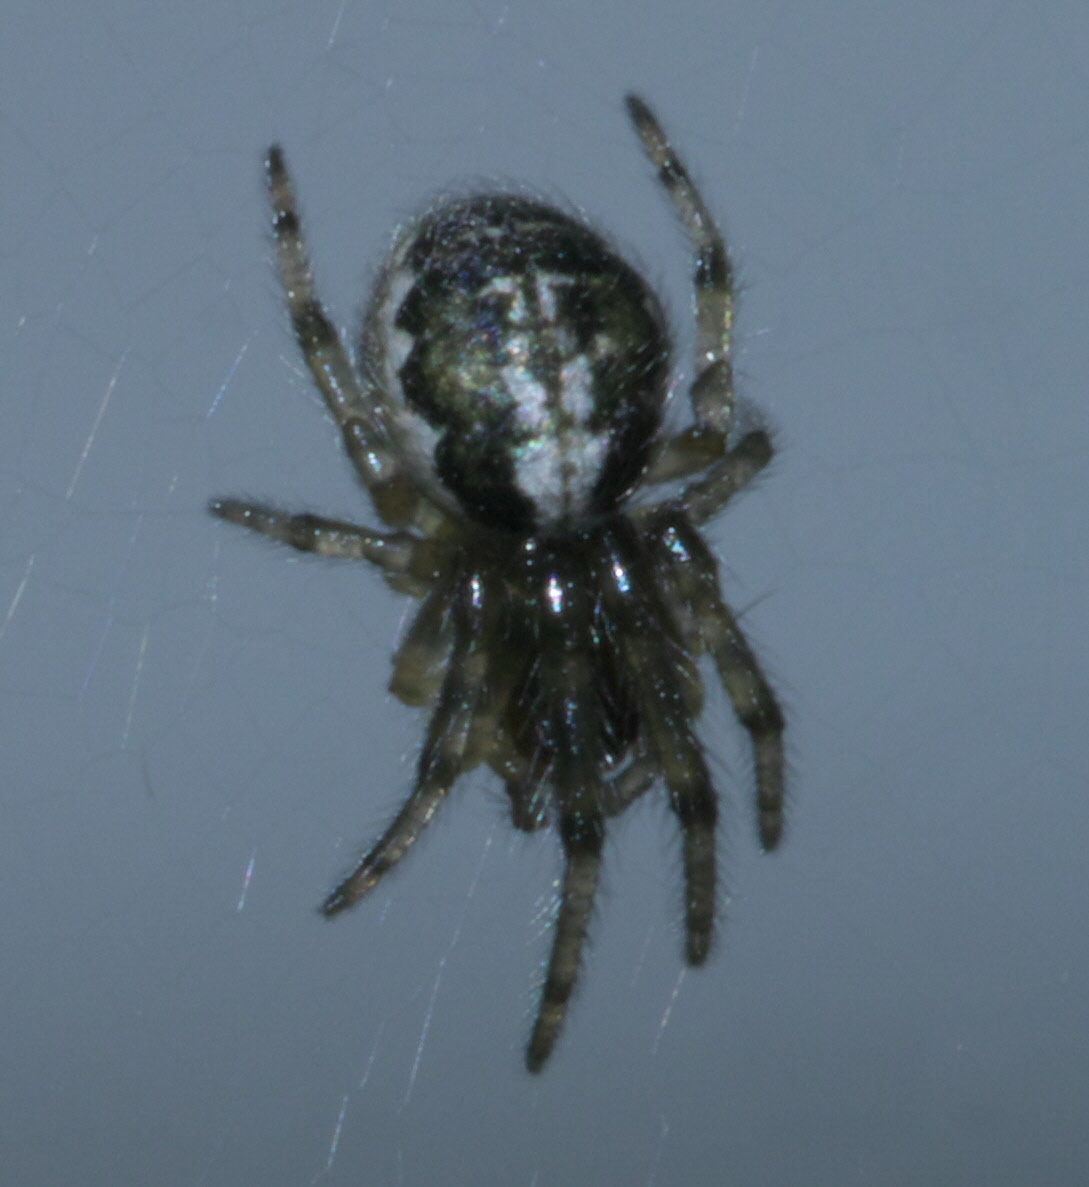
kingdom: Animalia
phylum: Arthropoda
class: Arachnida
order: Araneae
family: Araneidae
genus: Zygiella
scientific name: Zygiella x-notata
